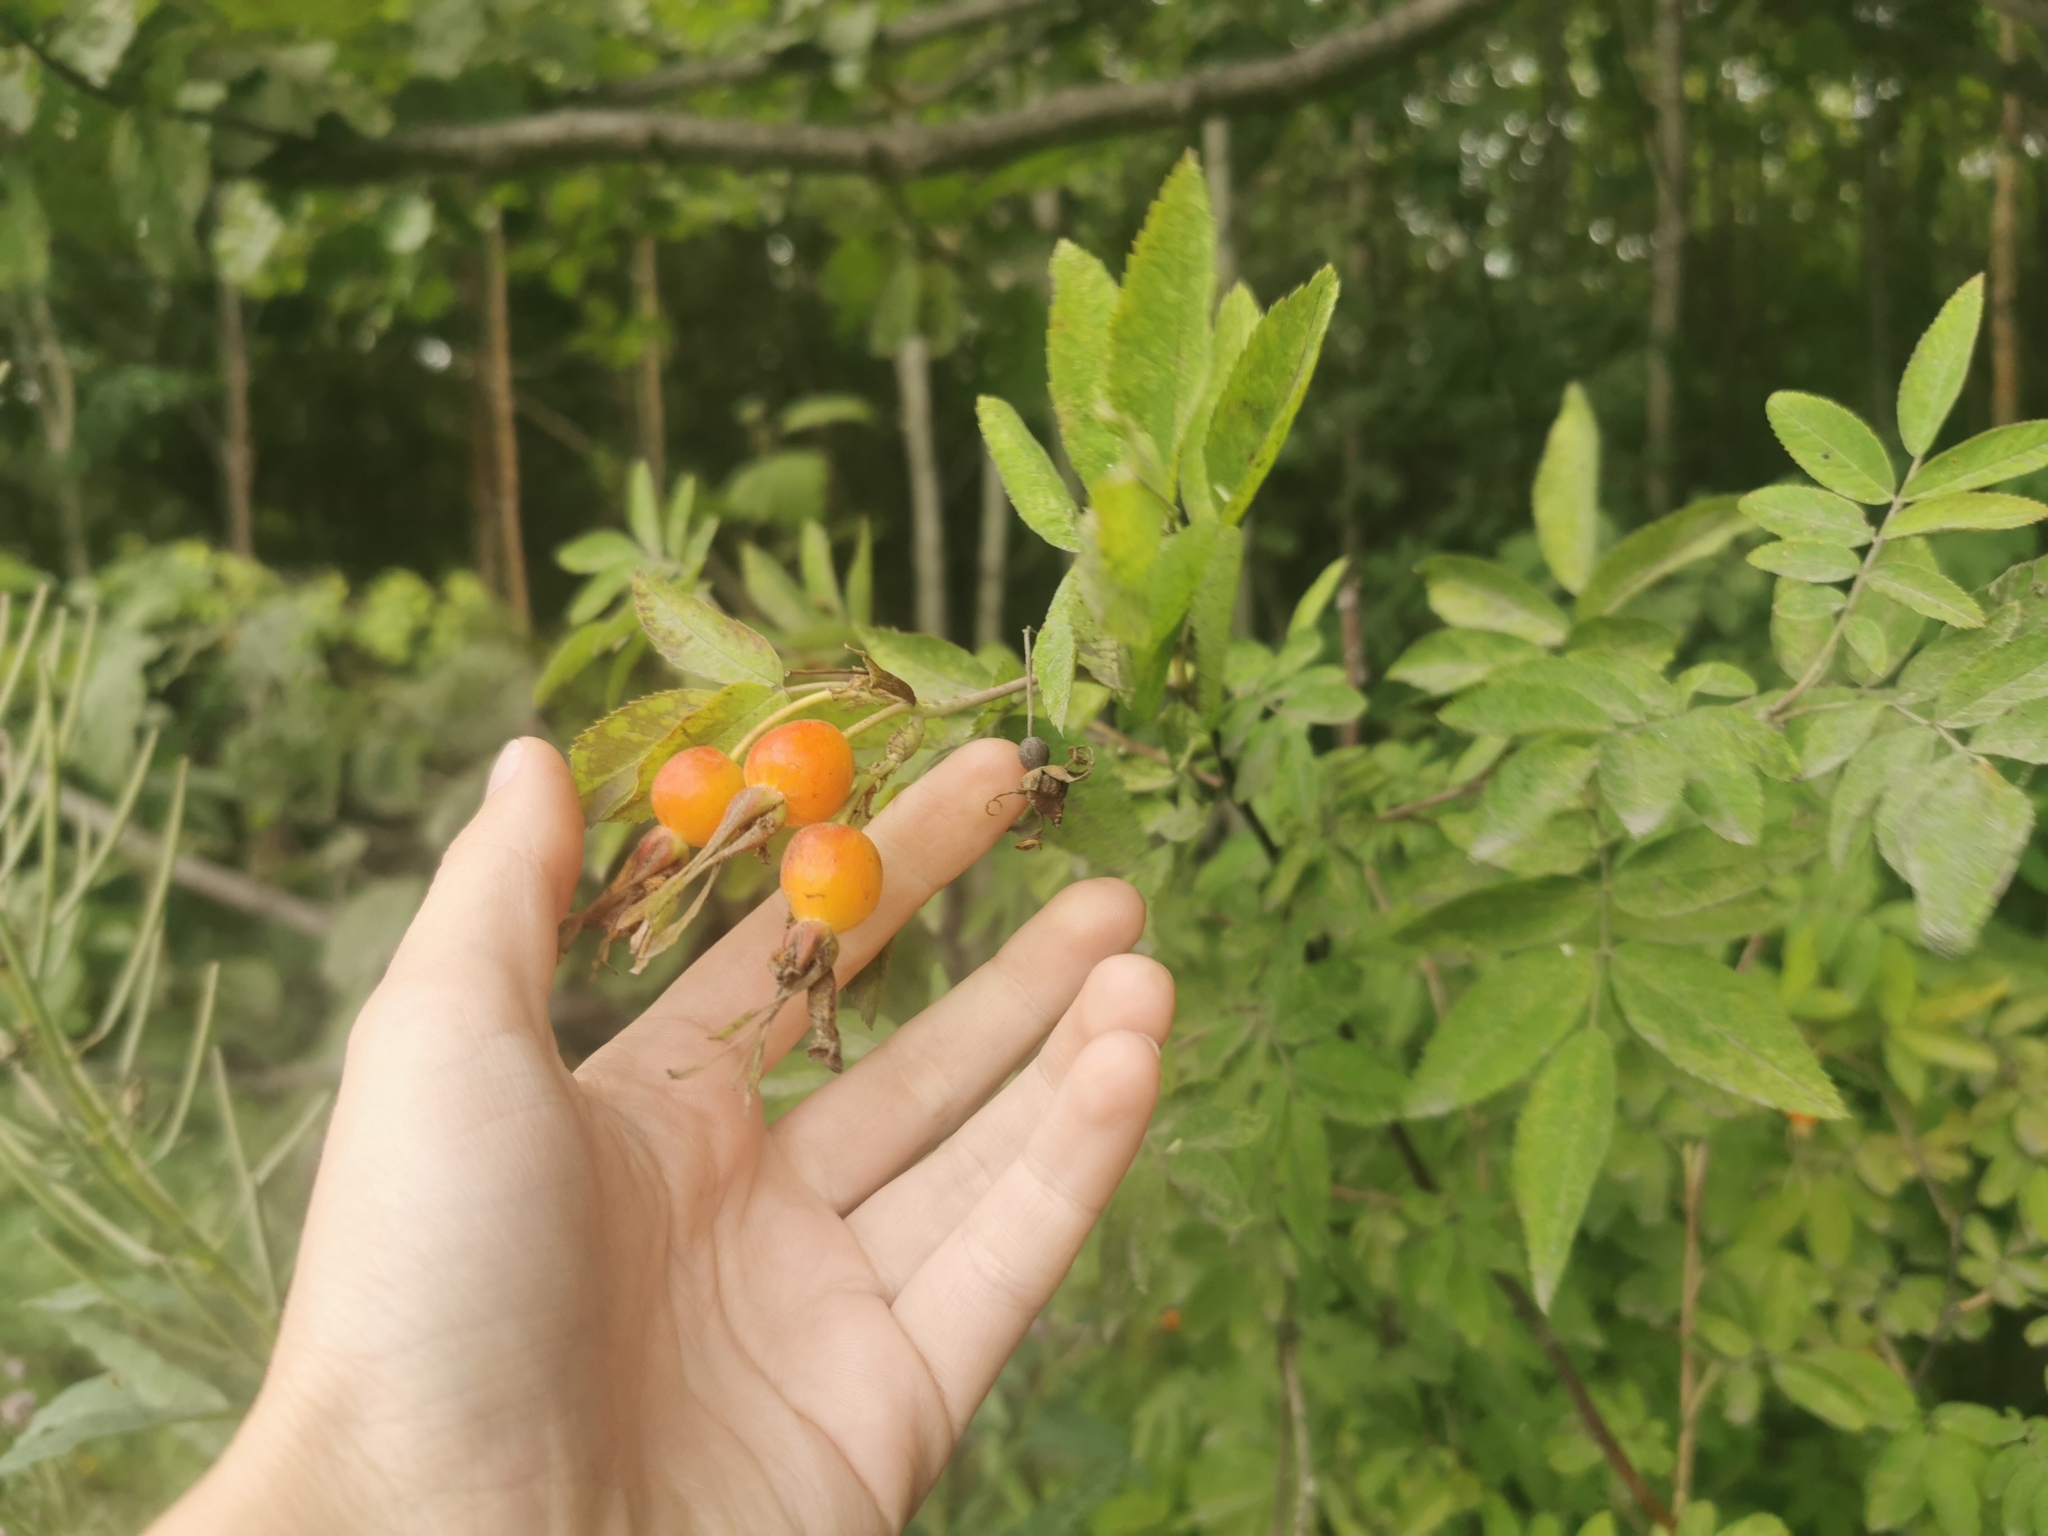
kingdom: Plantae
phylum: Tracheophyta
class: Magnoliopsida
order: Rosales
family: Rosaceae
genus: Rosa
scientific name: Rosa davurica
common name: Amur rose
